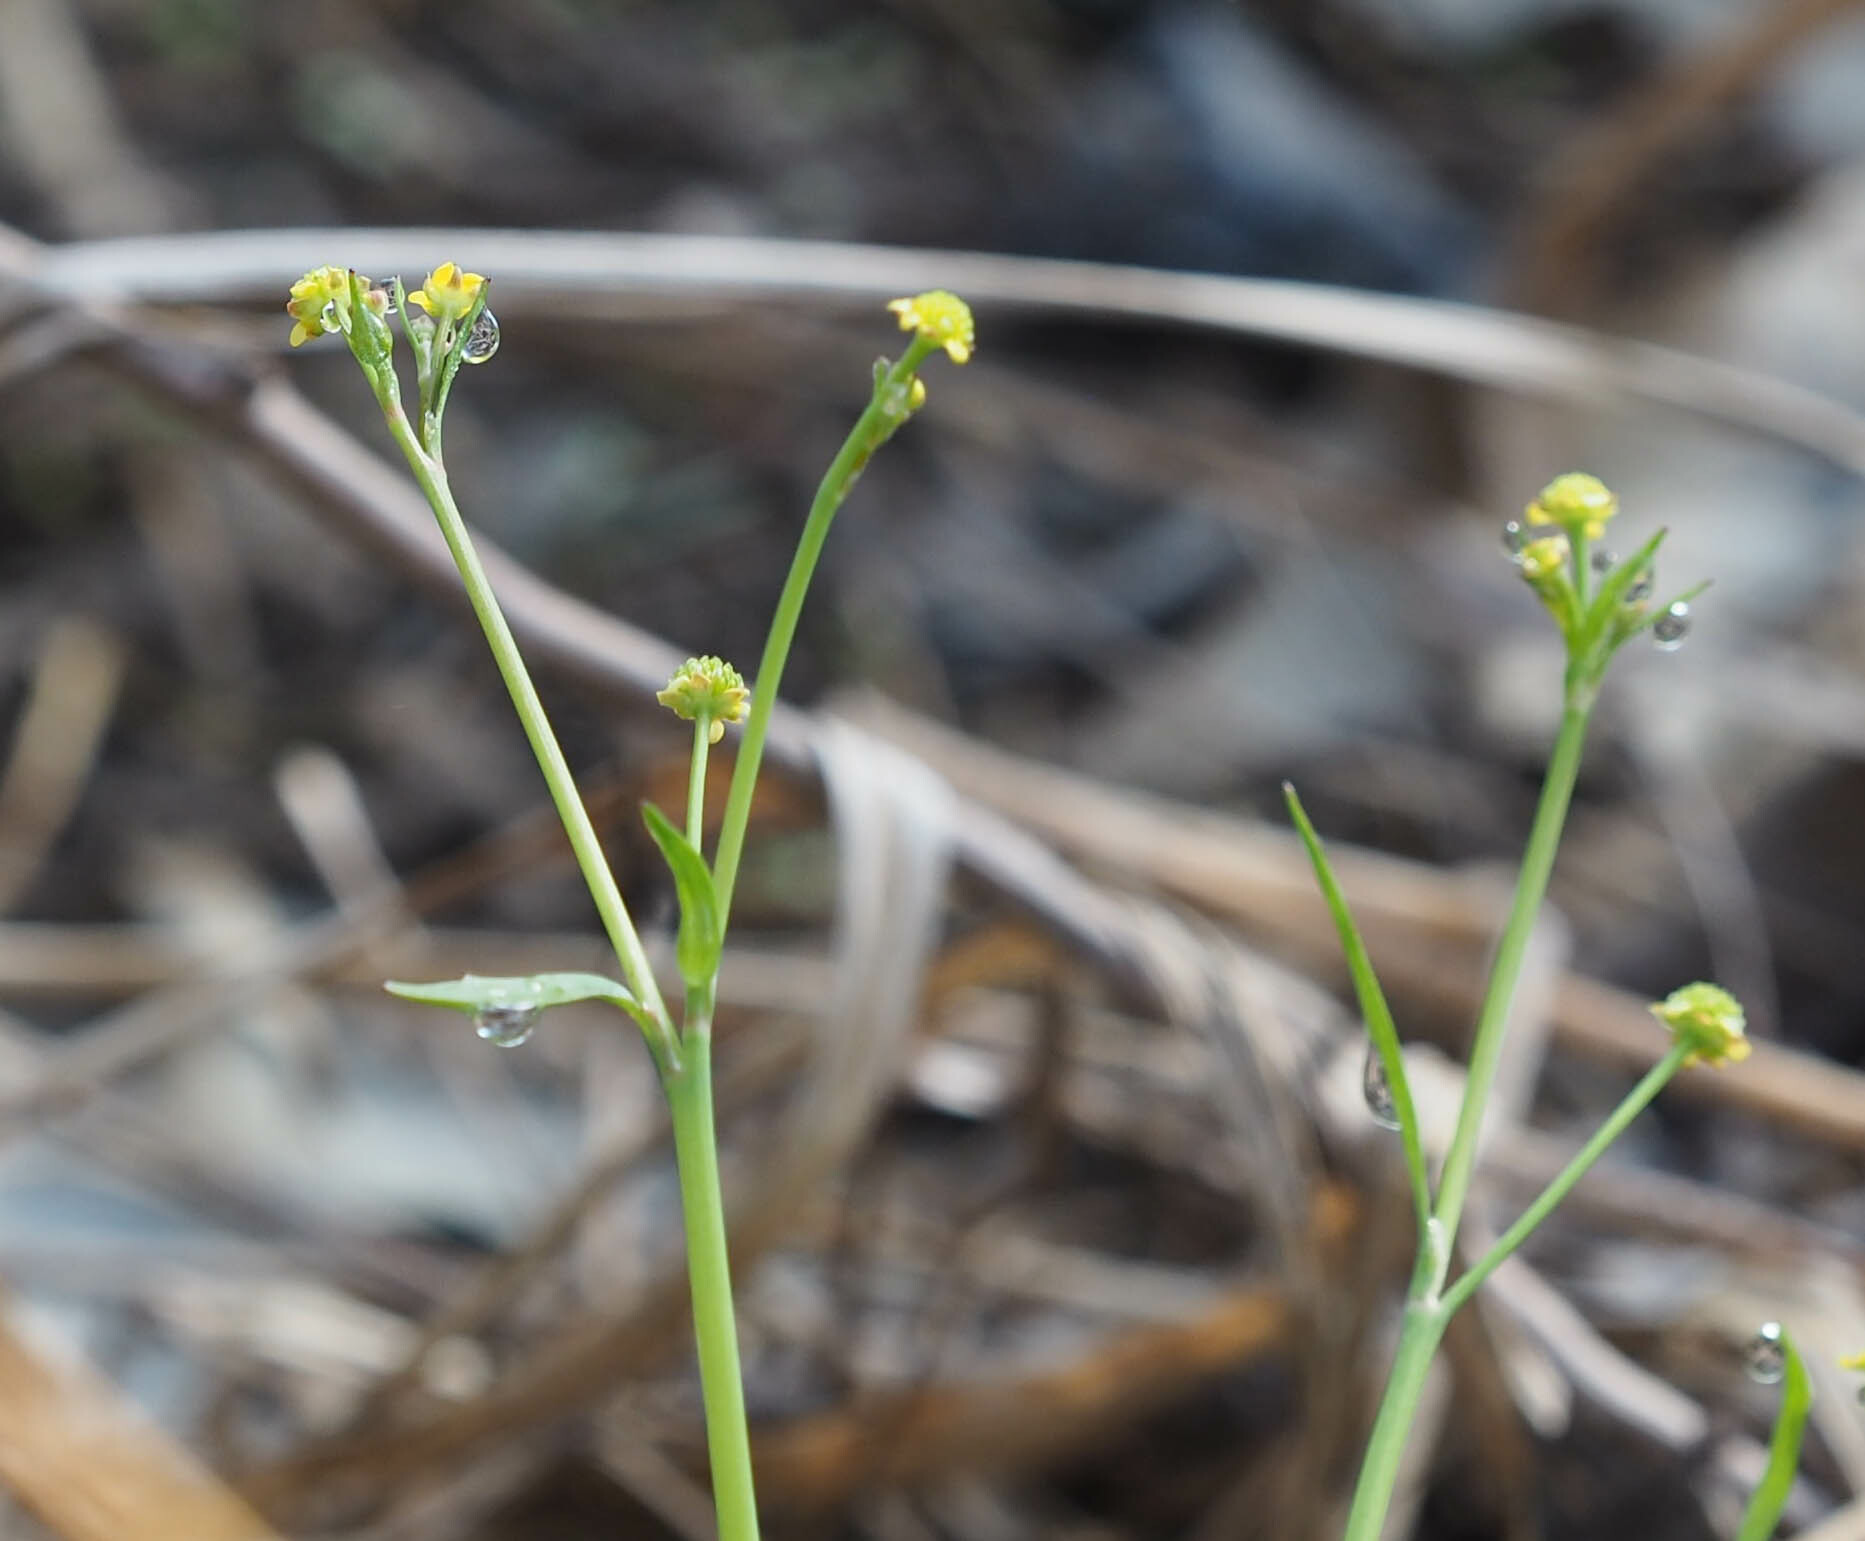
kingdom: Plantae
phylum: Tracheophyta
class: Magnoliopsida
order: Ranunculales
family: Ranunculaceae
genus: Ranunculus
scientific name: Ranunculus pusillus
